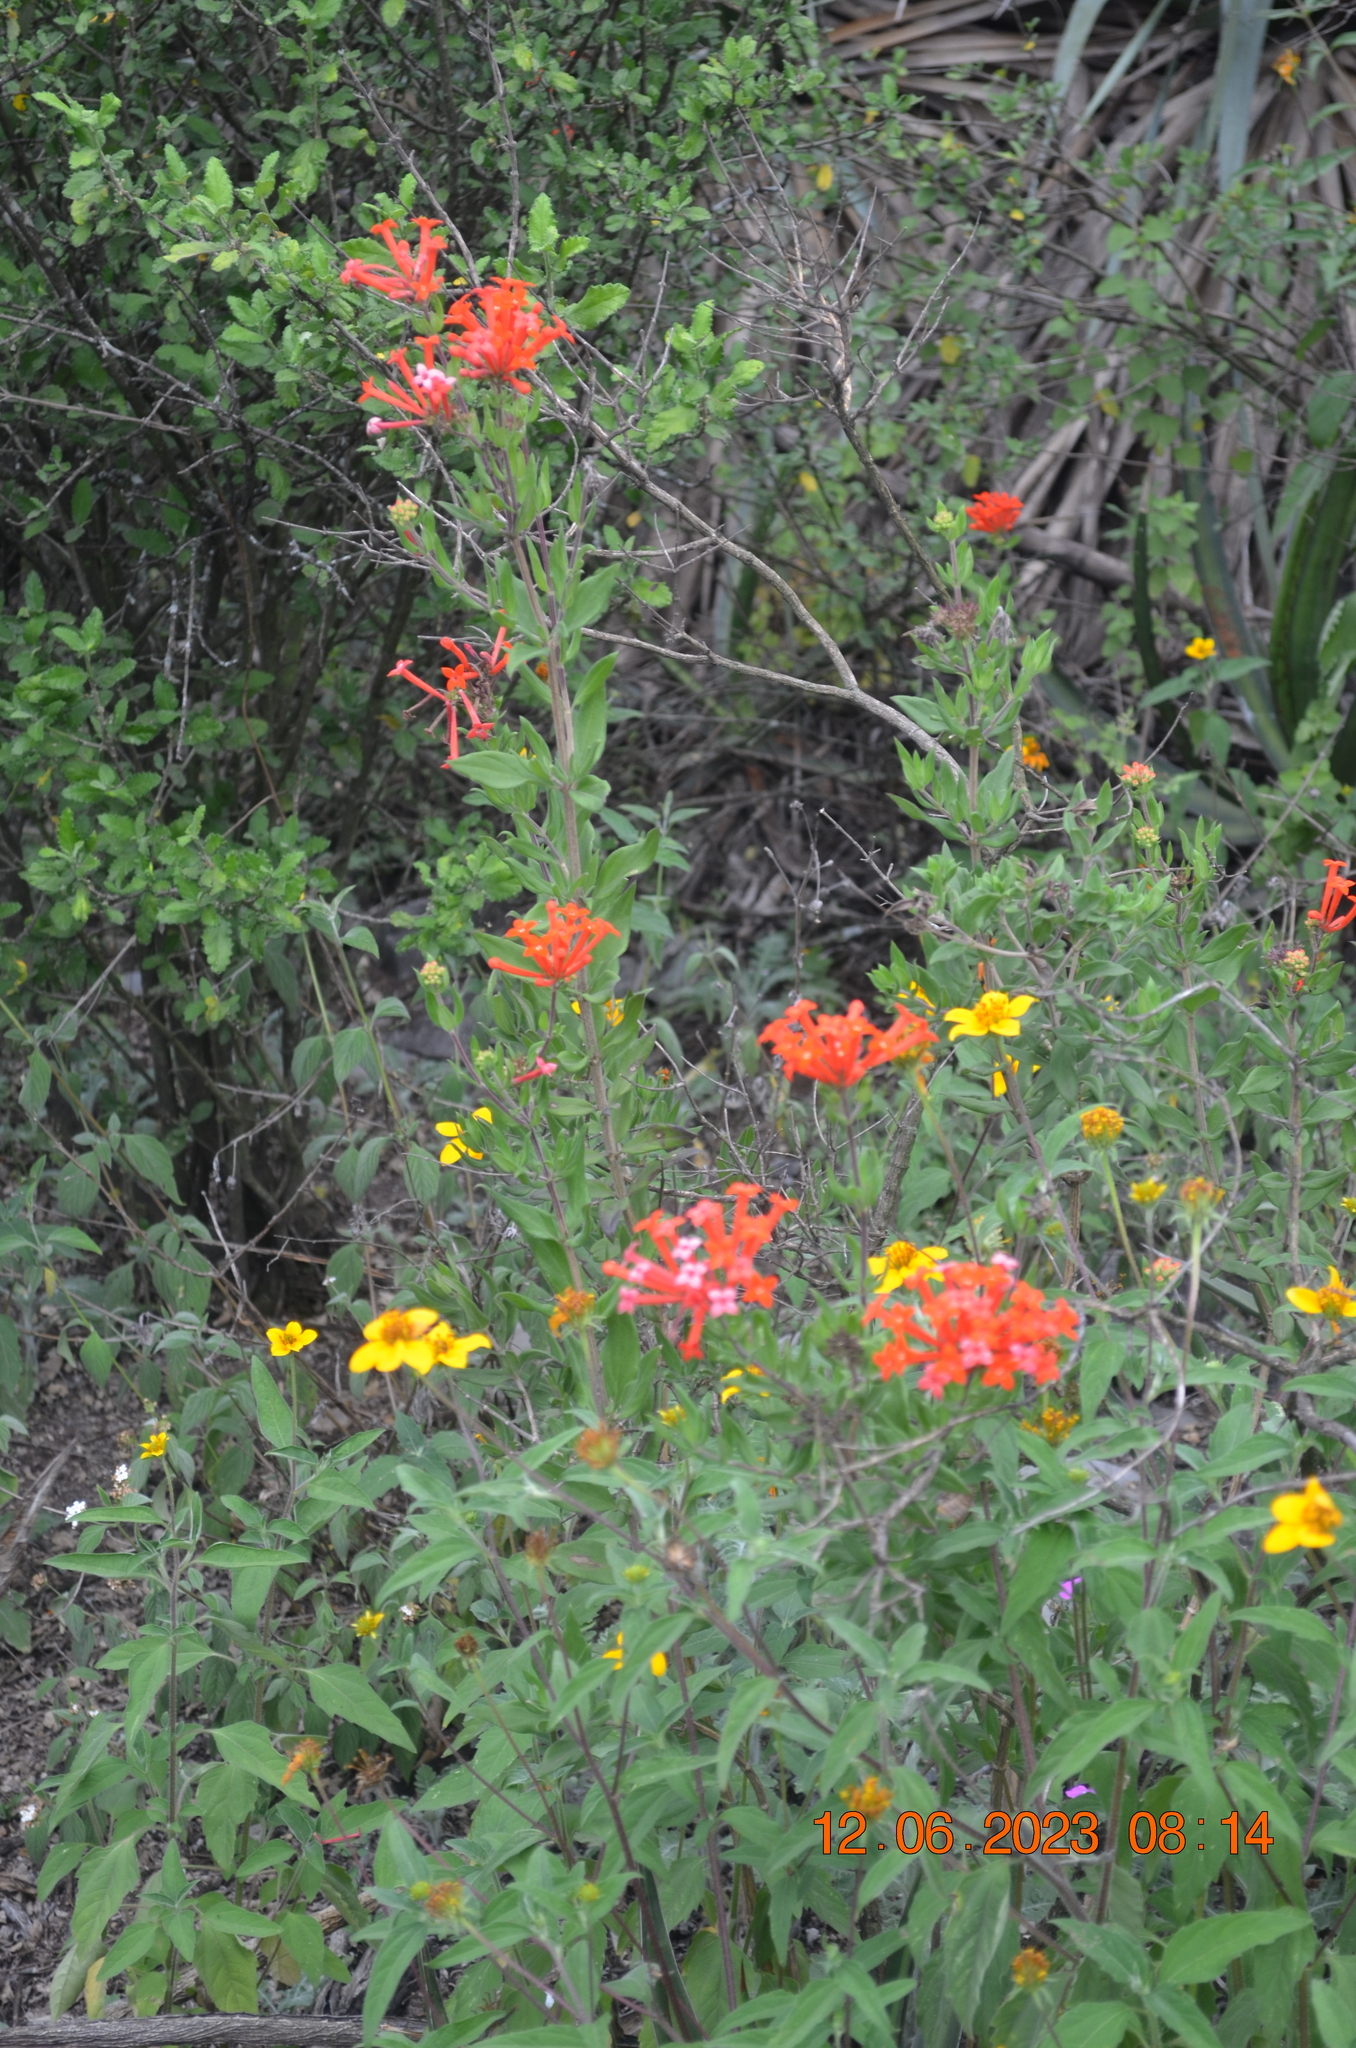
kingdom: Plantae
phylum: Tracheophyta
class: Magnoliopsida
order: Gentianales
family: Rubiaceae
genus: Bouvardia
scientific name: Bouvardia ternifolia
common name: Scarlet bouvardia
